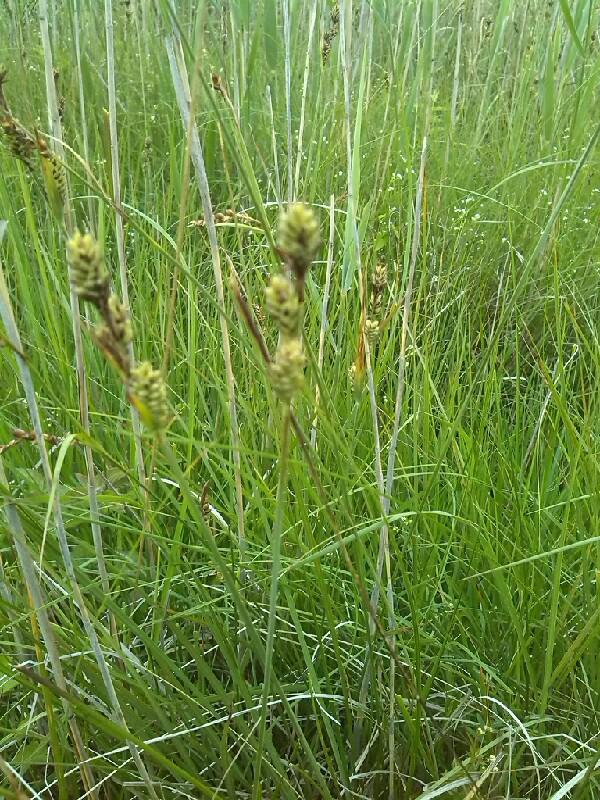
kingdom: Plantae
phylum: Tracheophyta
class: Liliopsida
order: Poales
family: Cyperaceae
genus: Carex
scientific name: Carex buxbaumii
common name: Club sedge
